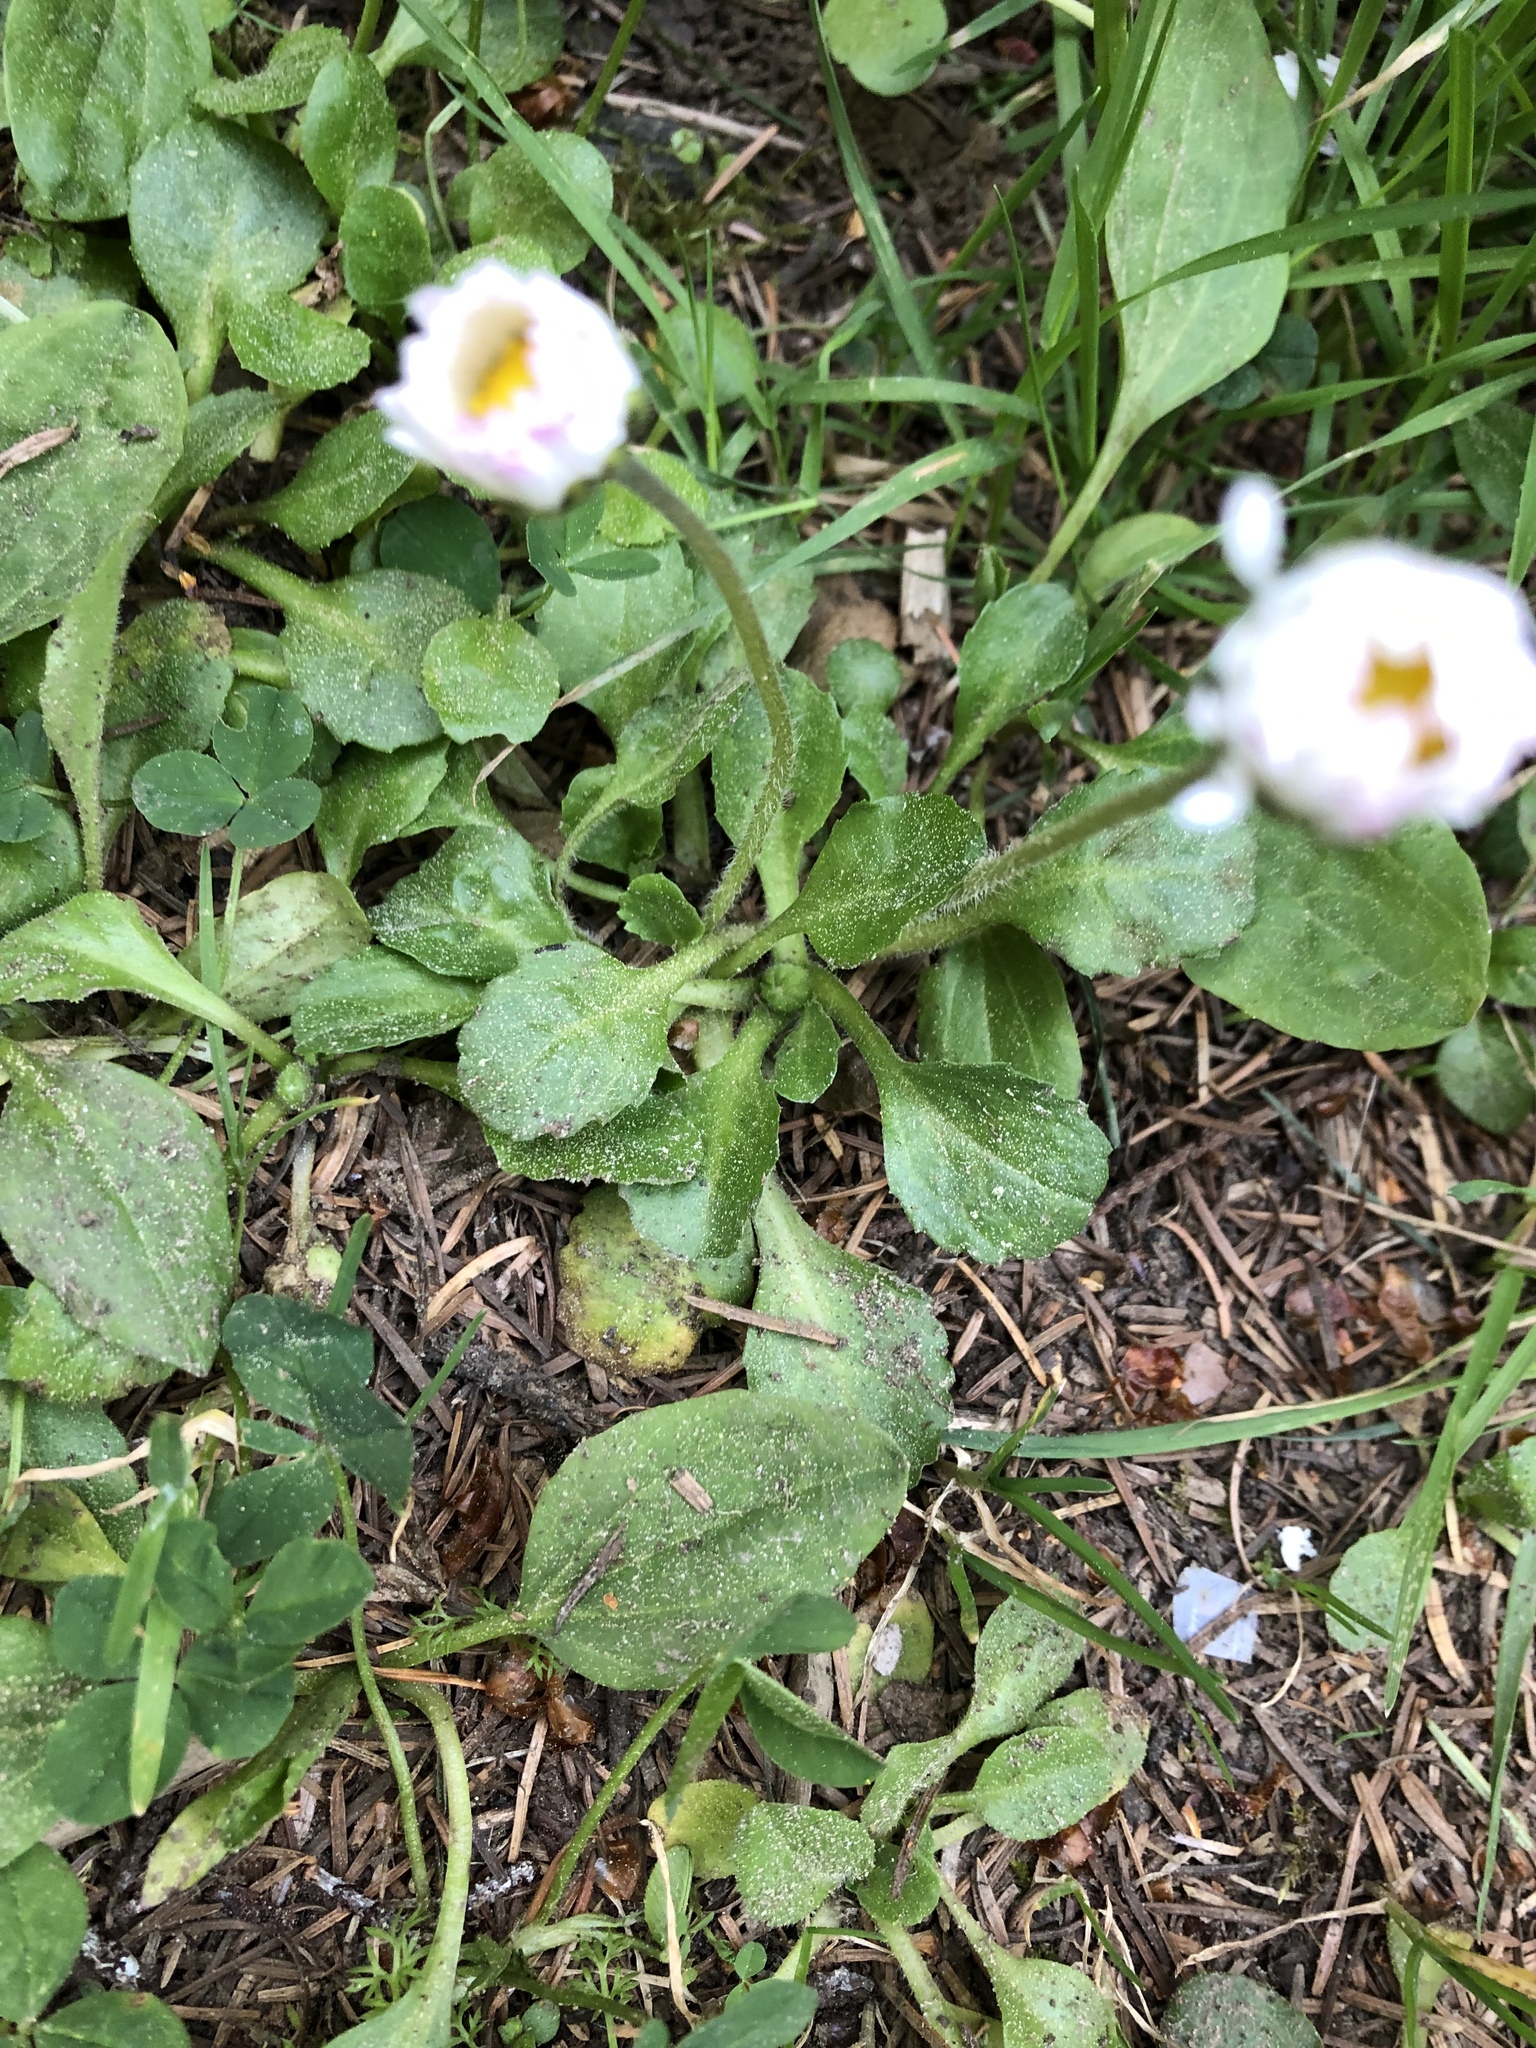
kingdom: Plantae
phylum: Tracheophyta
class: Magnoliopsida
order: Asterales
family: Asteraceae
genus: Bellis
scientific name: Bellis perennis
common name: Lawndaisy
